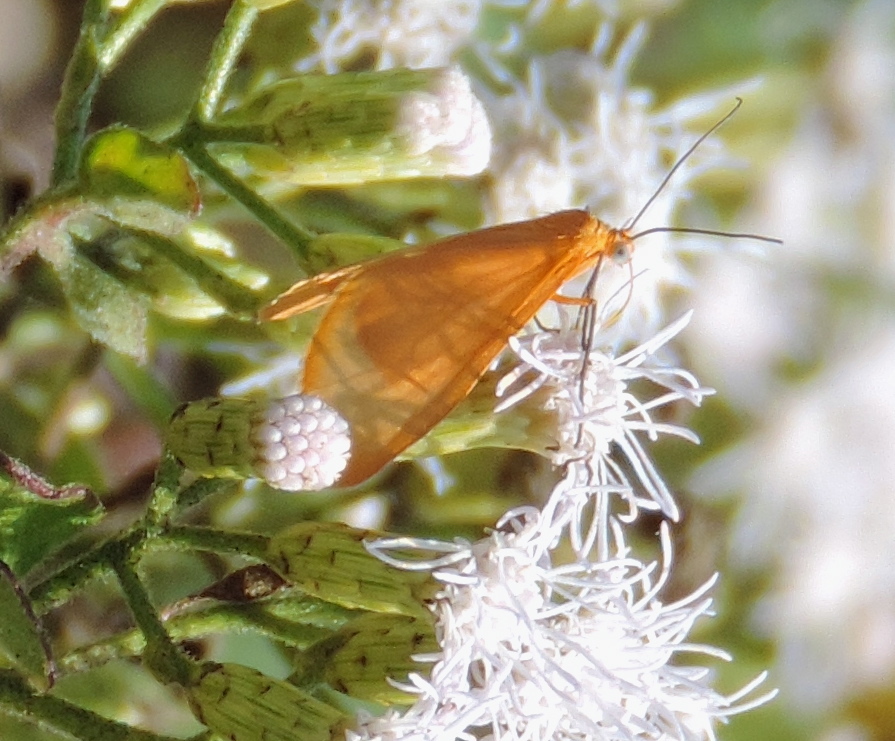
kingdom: Animalia
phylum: Arthropoda
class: Insecta
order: Lepidoptera
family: Geometridae
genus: Eubaphe
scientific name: Eubaphe unicolor
